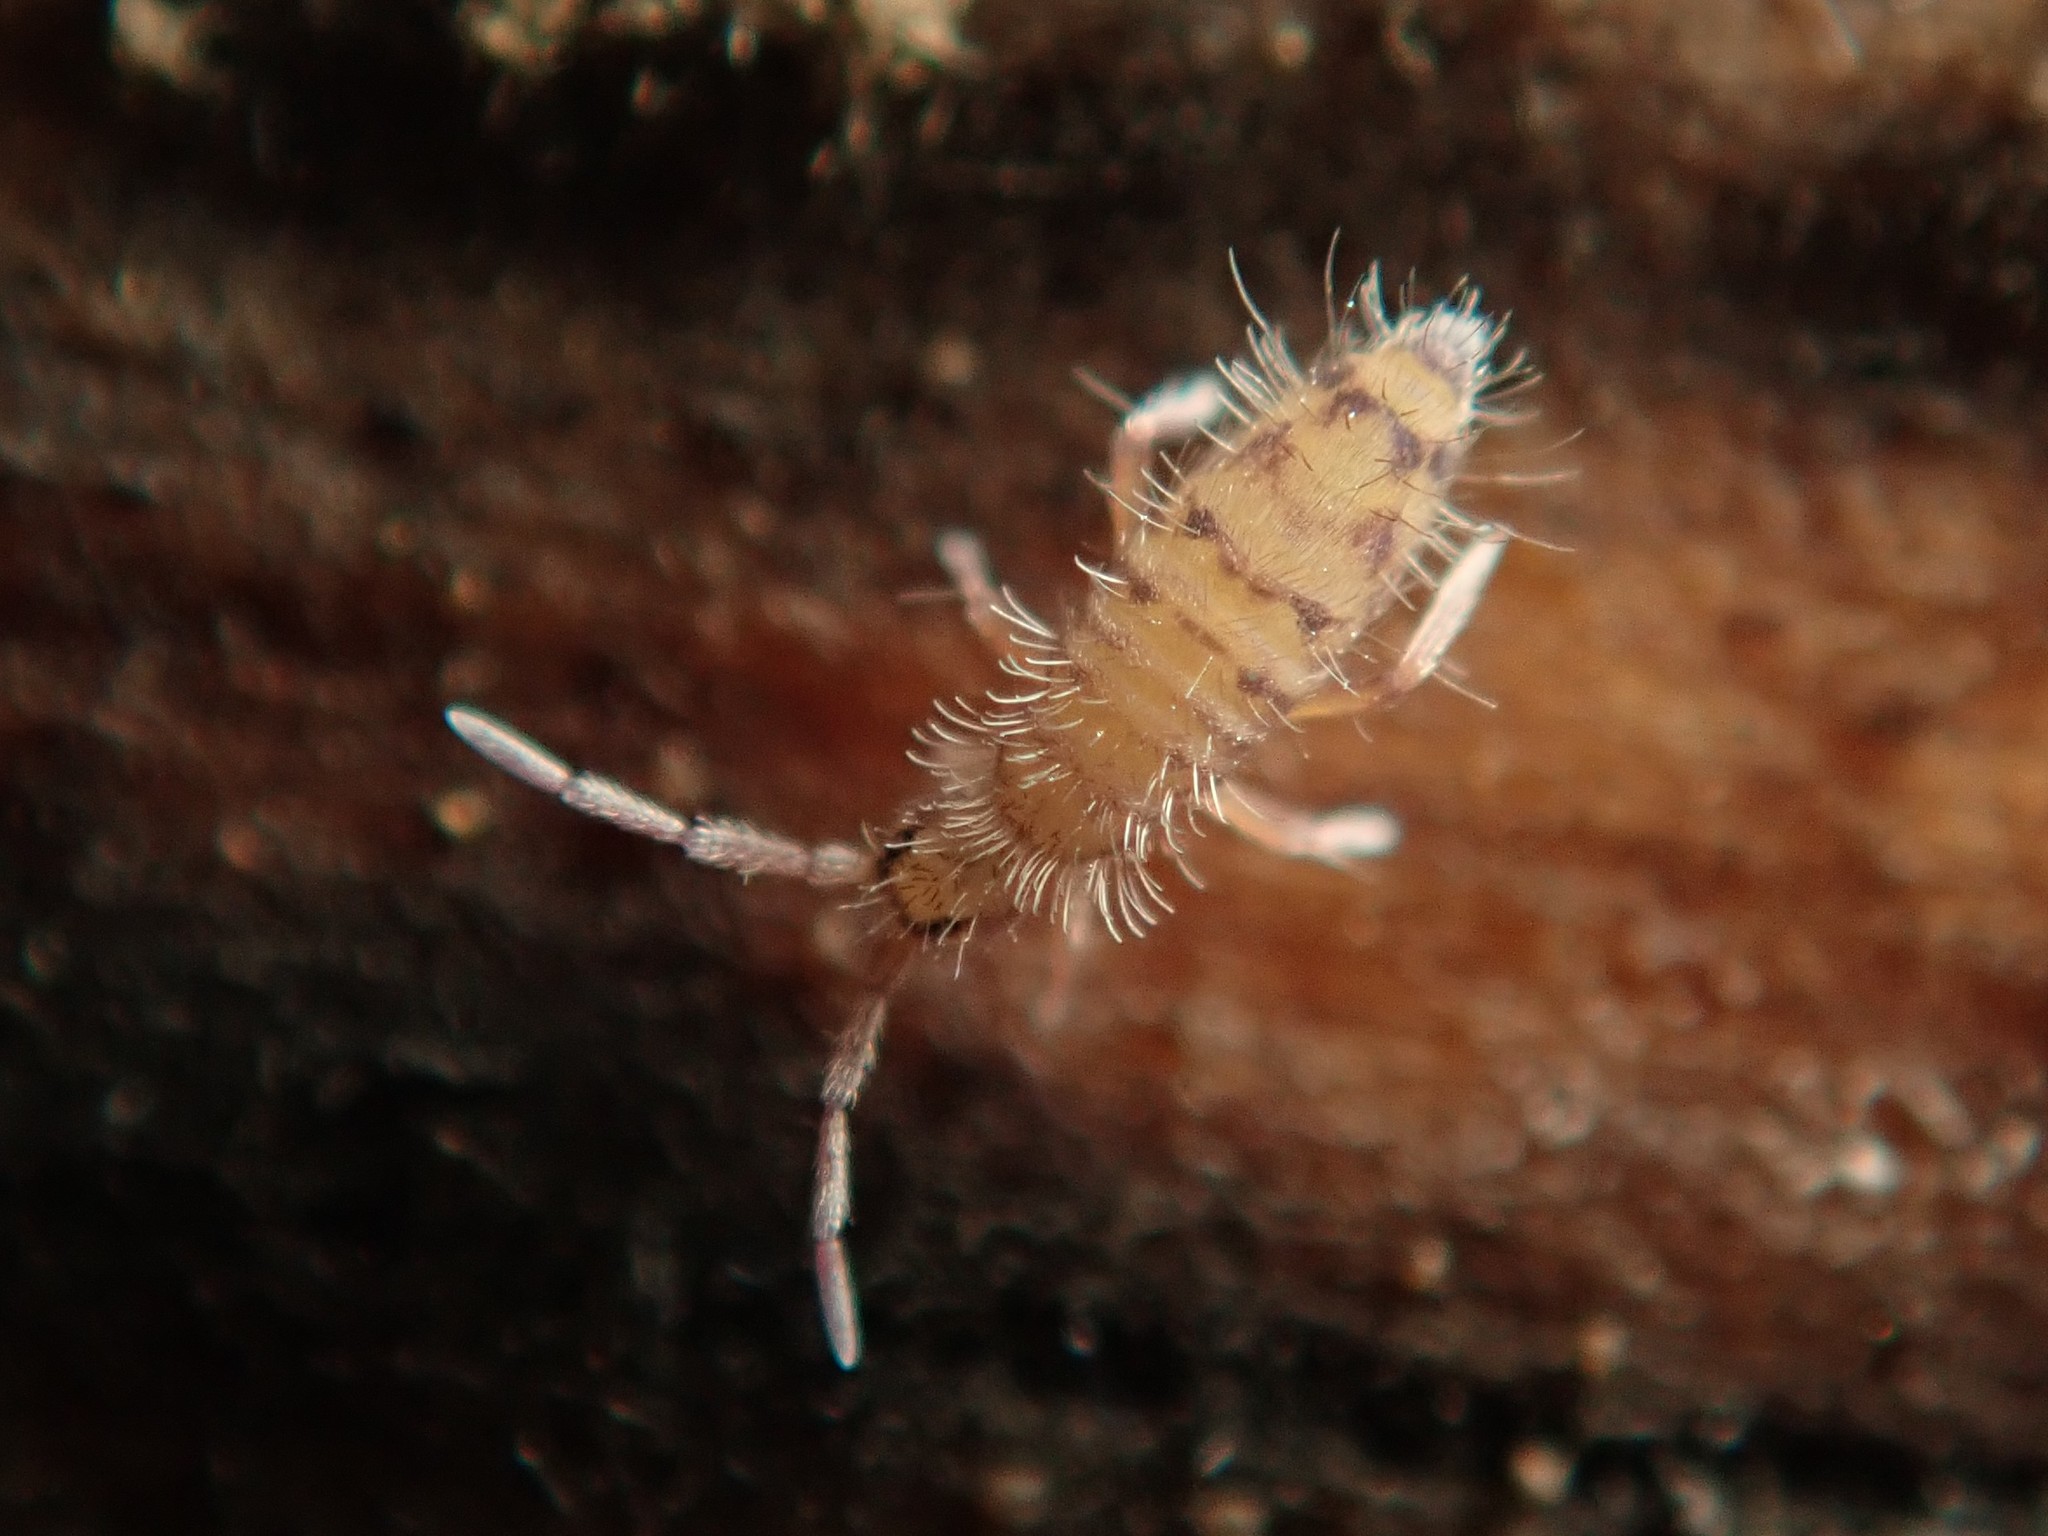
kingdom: Animalia
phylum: Arthropoda
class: Collembola
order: Entomobryomorpha
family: Entomobryidae
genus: Entomobrya
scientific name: Entomobrya multifasciata
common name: Springtail
